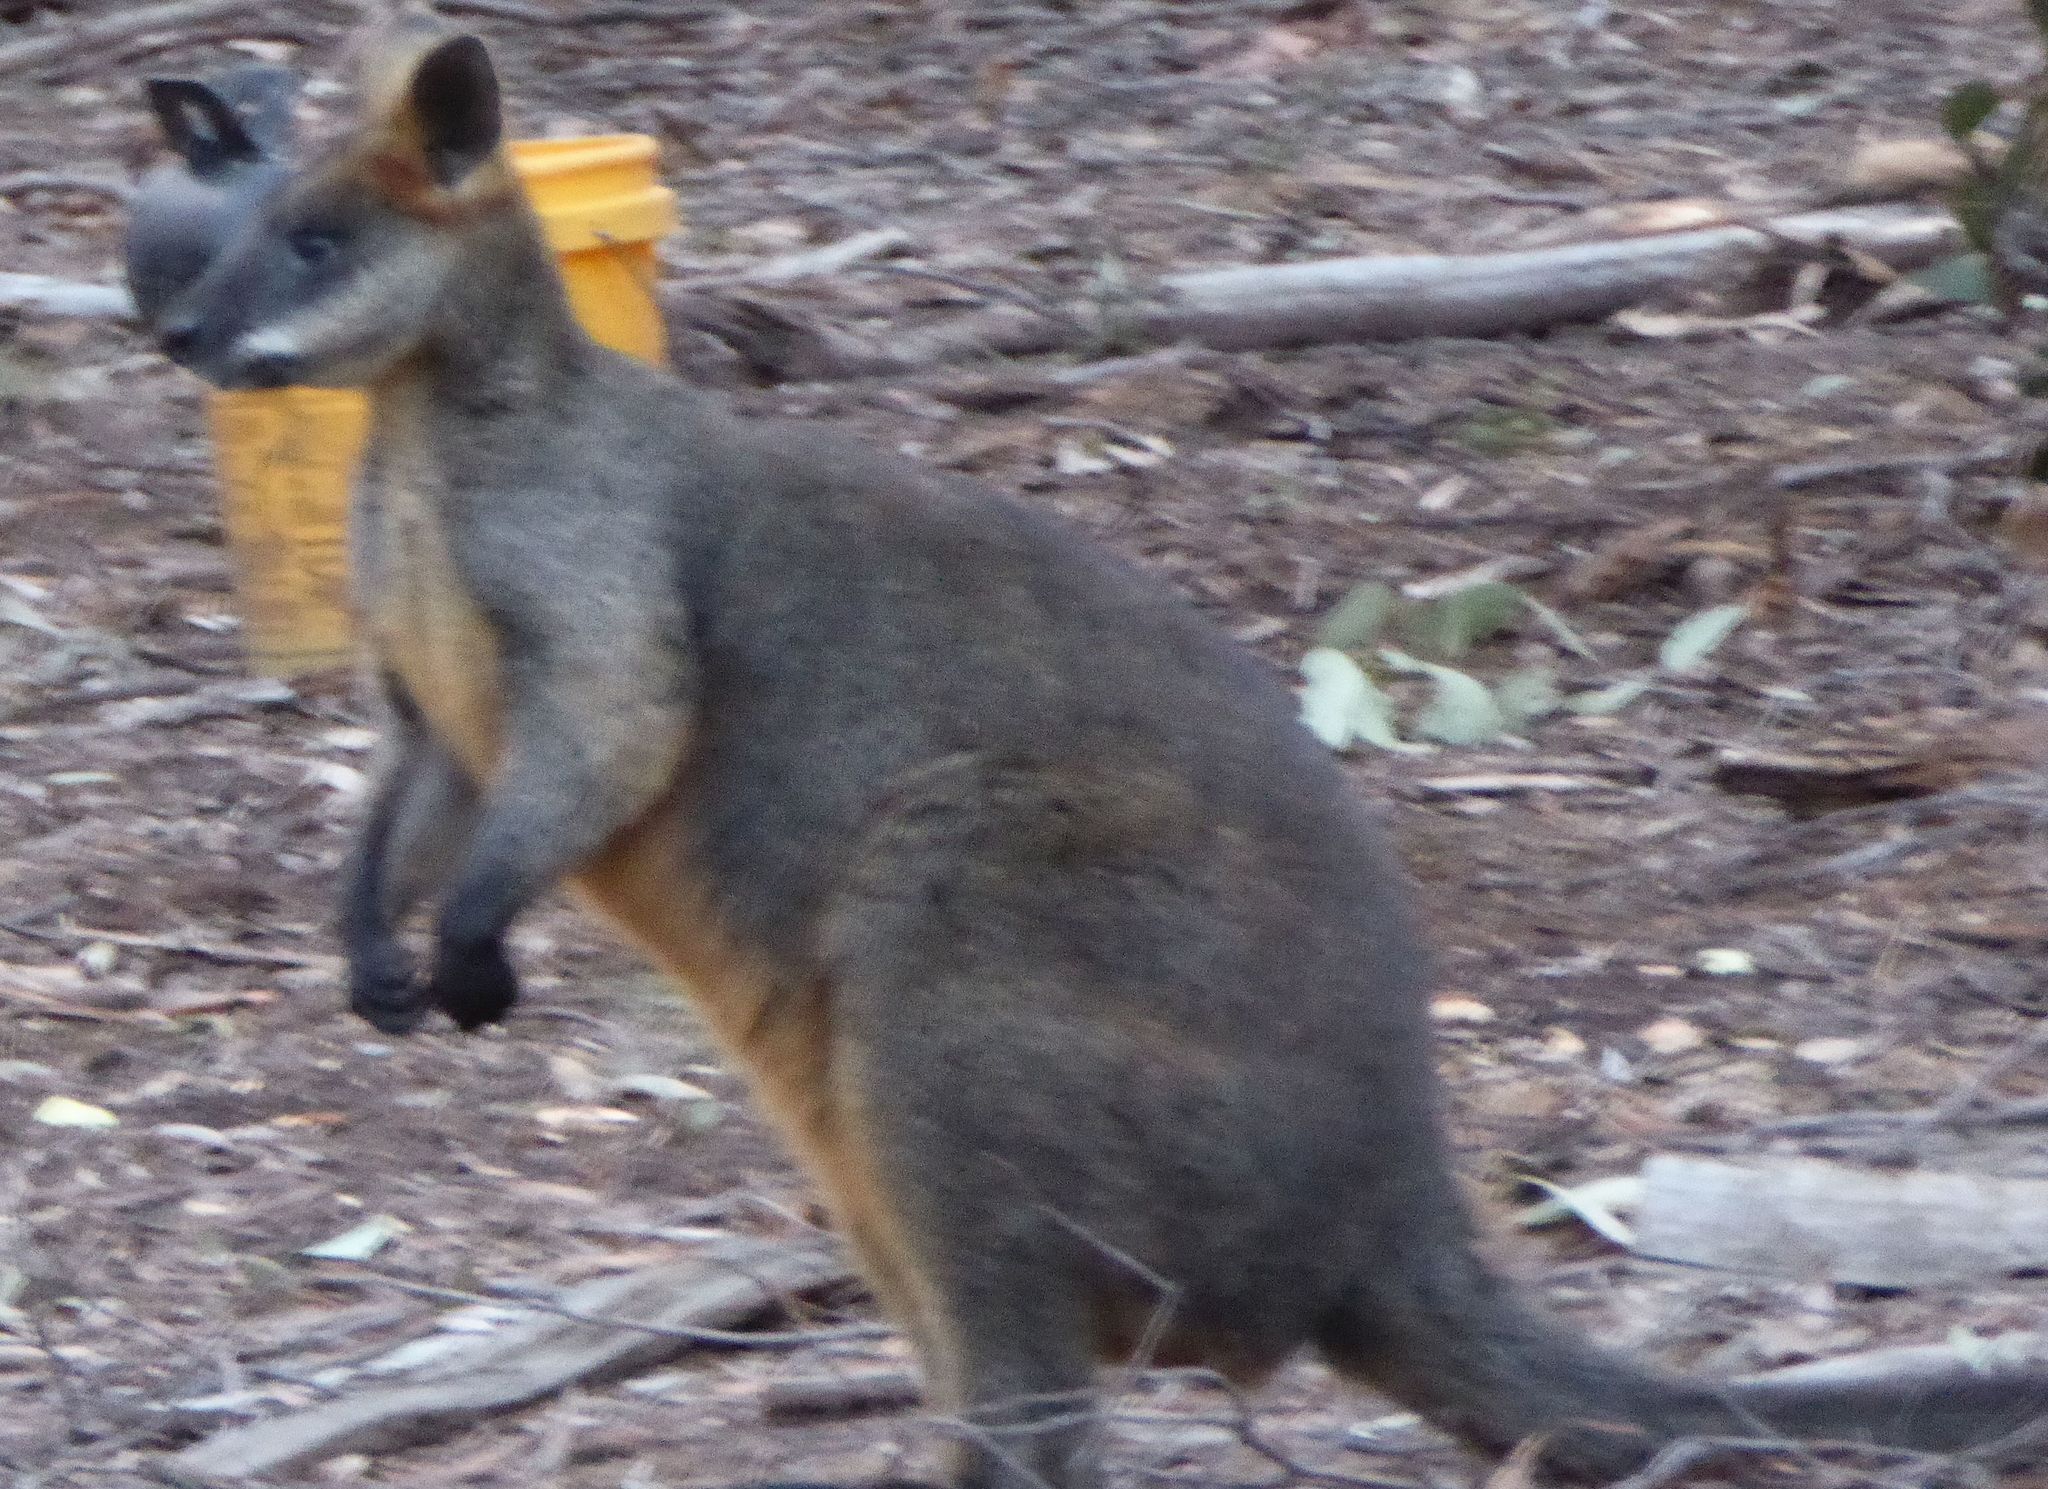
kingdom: Animalia
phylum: Chordata
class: Mammalia
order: Diprotodontia
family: Macropodidae
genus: Wallabia
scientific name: Wallabia bicolor
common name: Swamp wallaby
